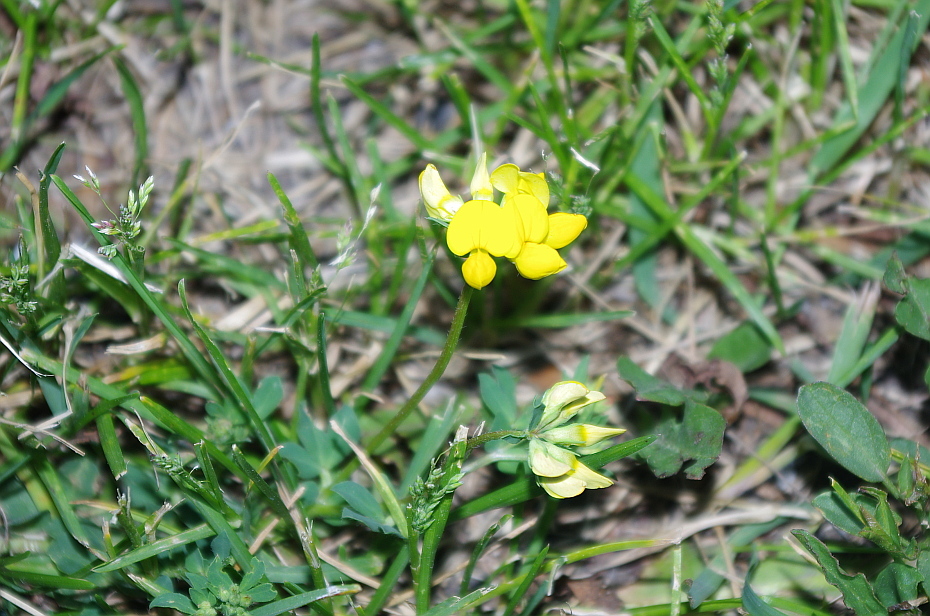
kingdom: Plantae
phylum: Tracheophyta
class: Magnoliopsida
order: Fabales
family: Fabaceae
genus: Lotus
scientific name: Lotus corniculatus
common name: Common bird's-foot-trefoil
